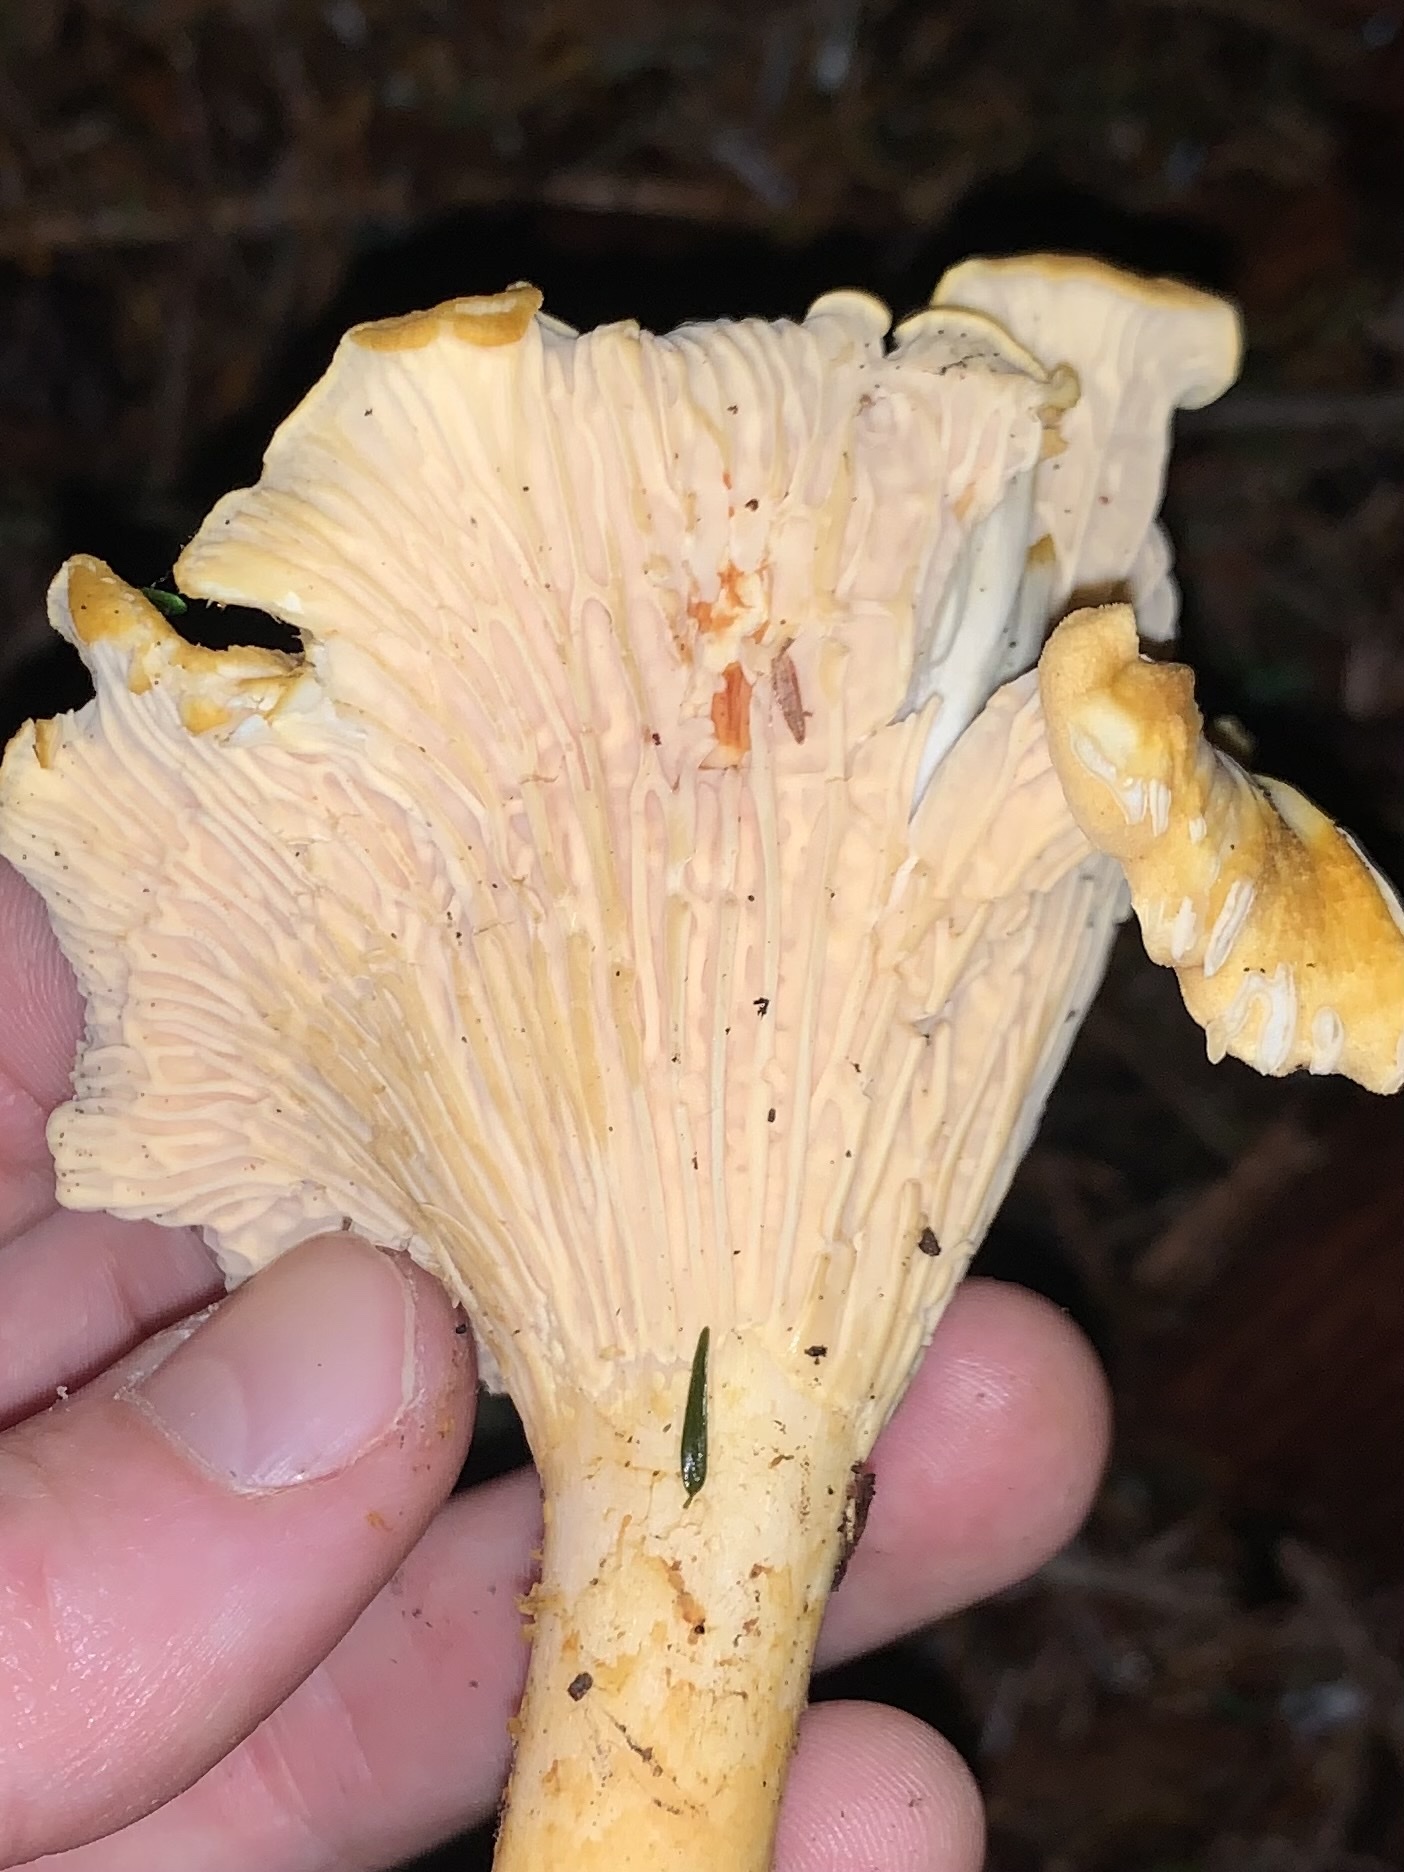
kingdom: Fungi
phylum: Basidiomycota
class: Agaricomycetes
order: Cantharellales
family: Hydnaceae
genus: Cantharellus
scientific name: Cantharellus formosus
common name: Pacific golden chanterelle
